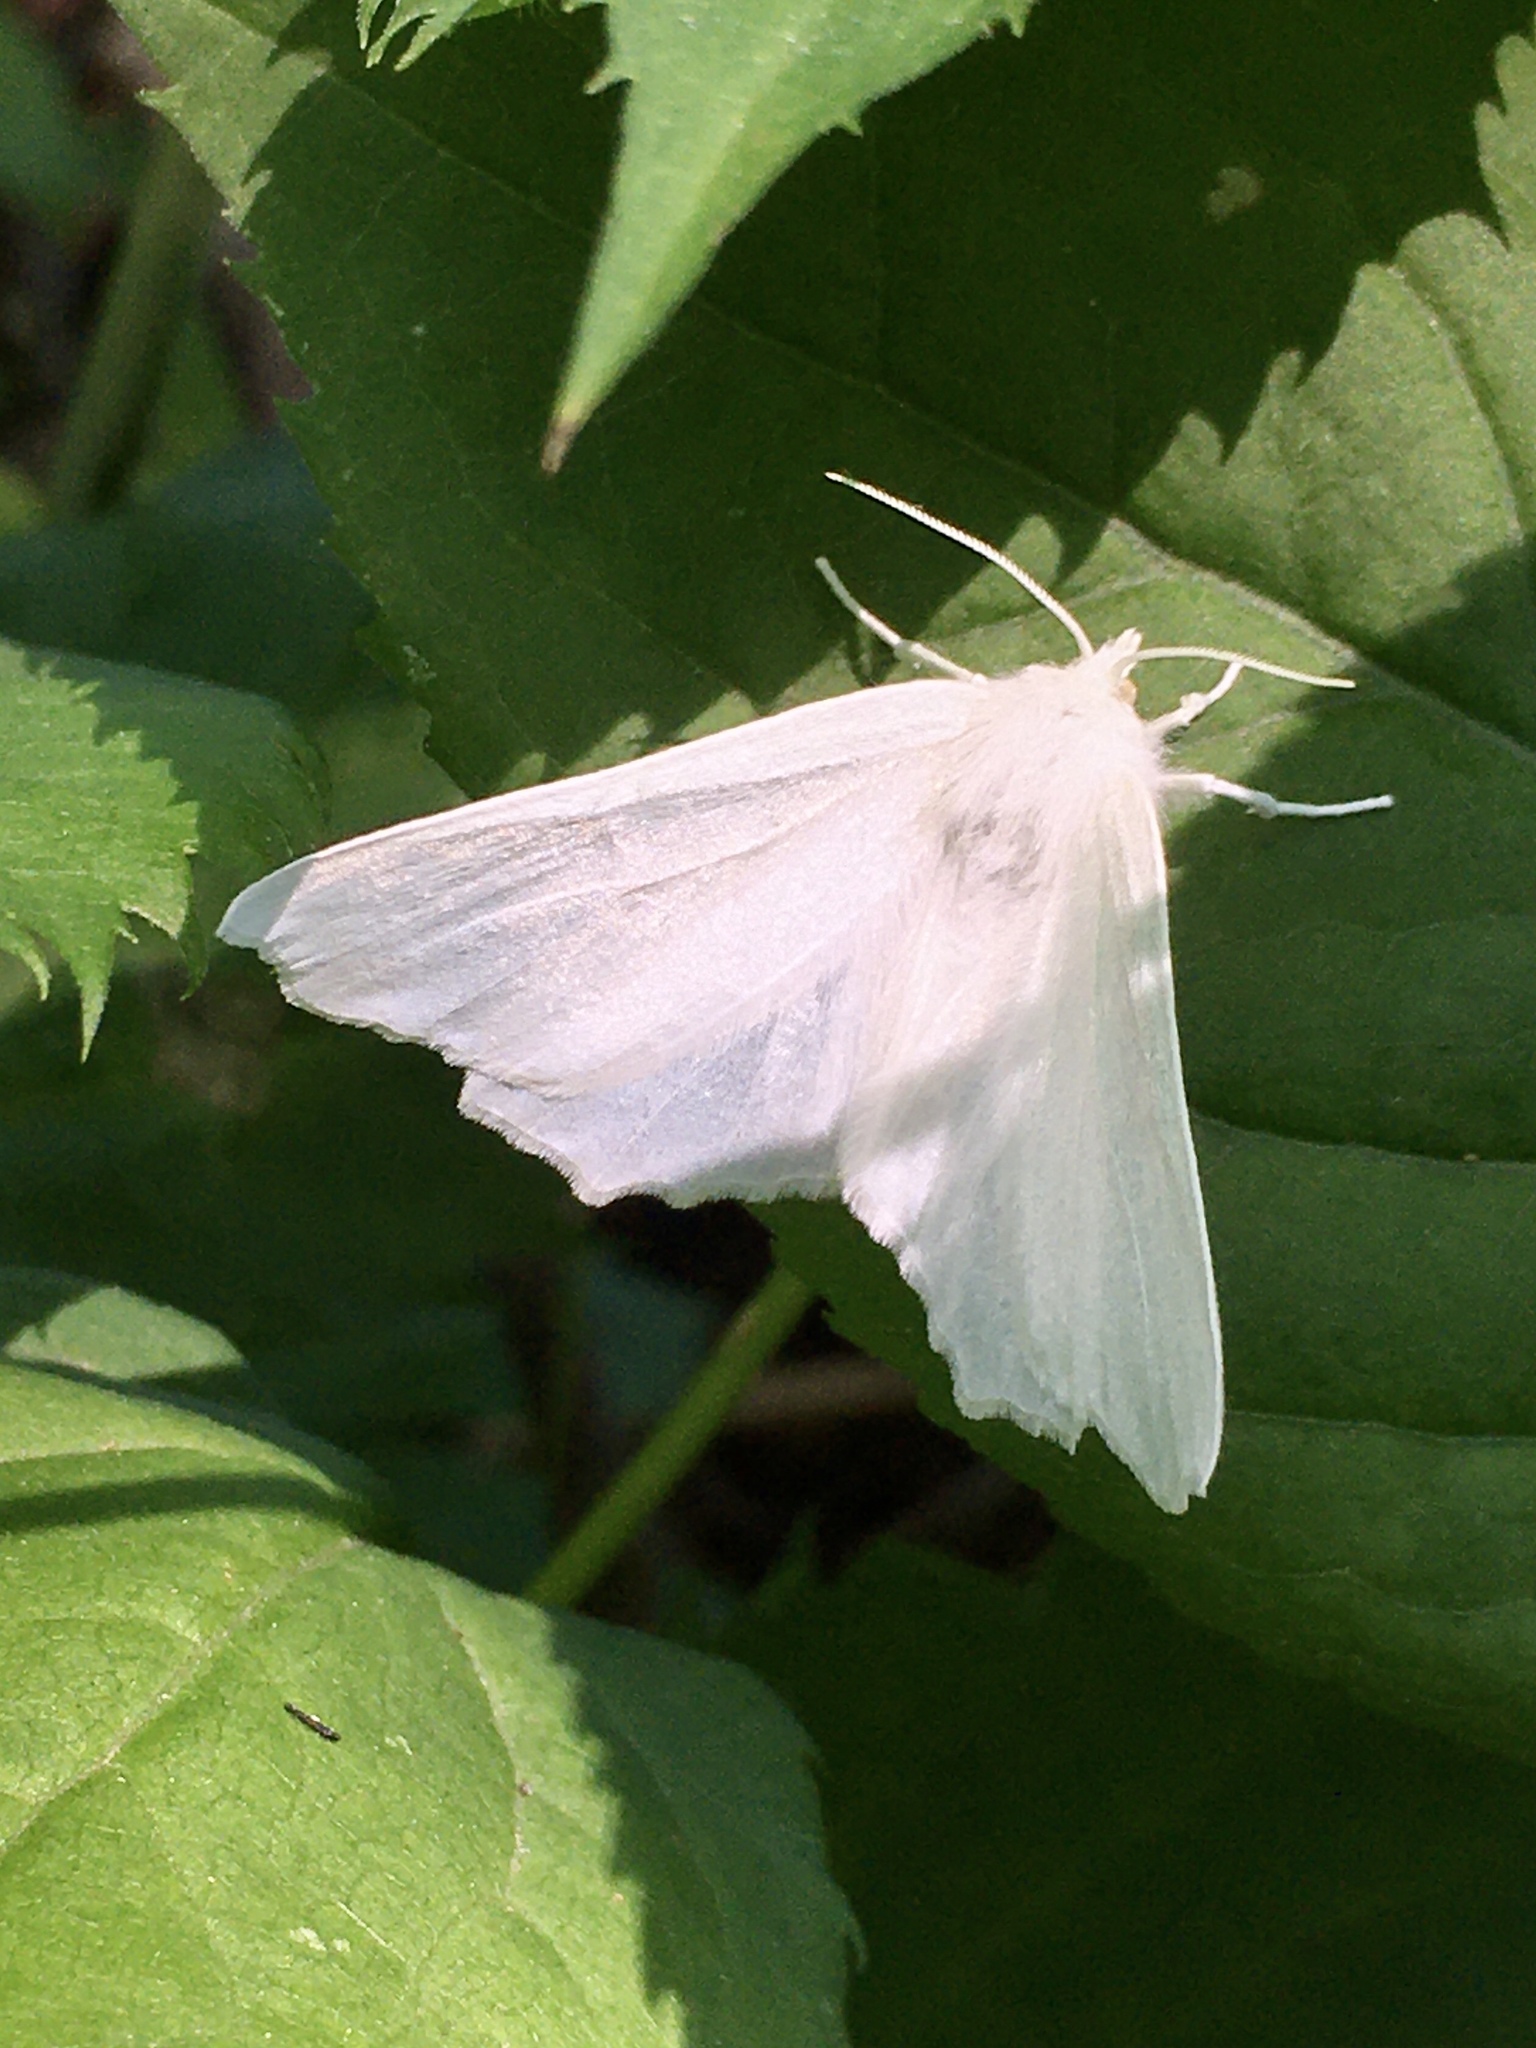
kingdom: Animalia
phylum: Arthropoda
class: Insecta
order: Lepidoptera
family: Geometridae
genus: Ennomos
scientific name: Ennomos subsignaria
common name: Elm spanworm
